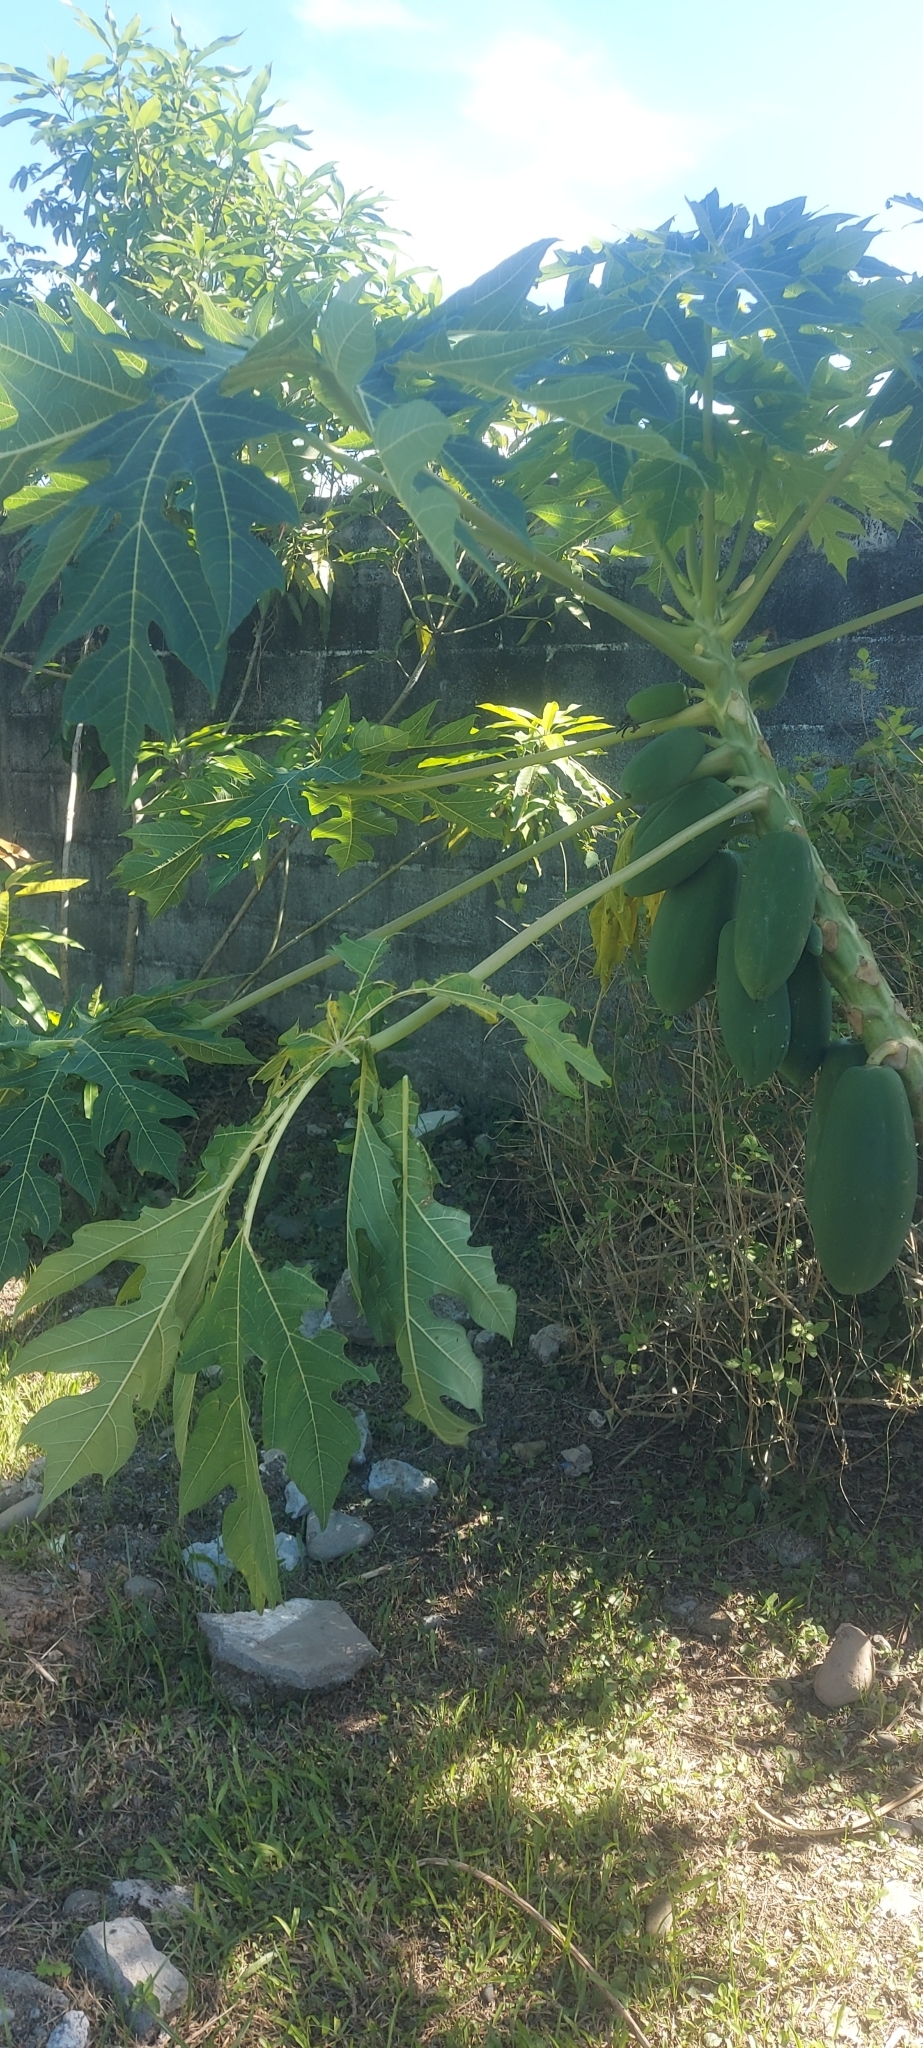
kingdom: Plantae
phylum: Tracheophyta
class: Magnoliopsida
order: Brassicales
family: Caricaceae
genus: Carica
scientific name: Carica papaya
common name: Papaya
